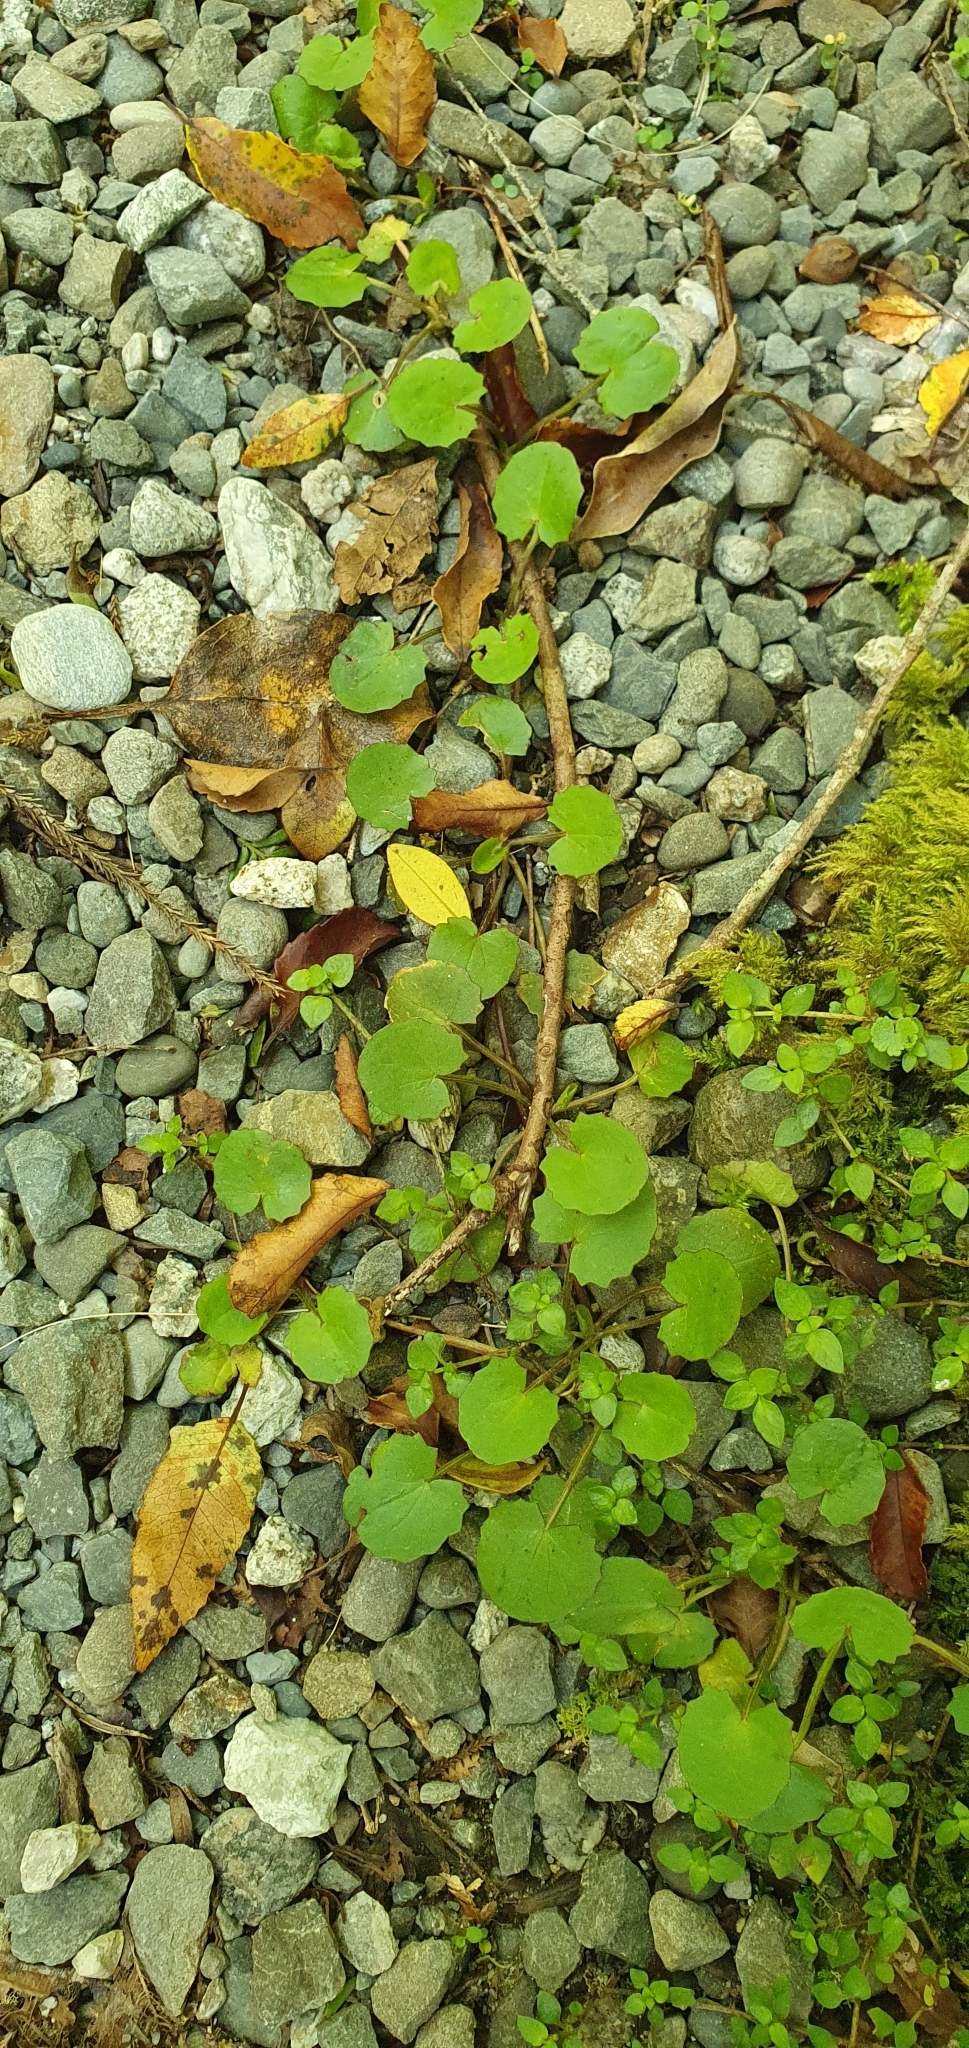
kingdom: Plantae
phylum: Tracheophyta
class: Magnoliopsida
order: Apiales
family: Apiaceae
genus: Centella
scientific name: Centella uniflora
